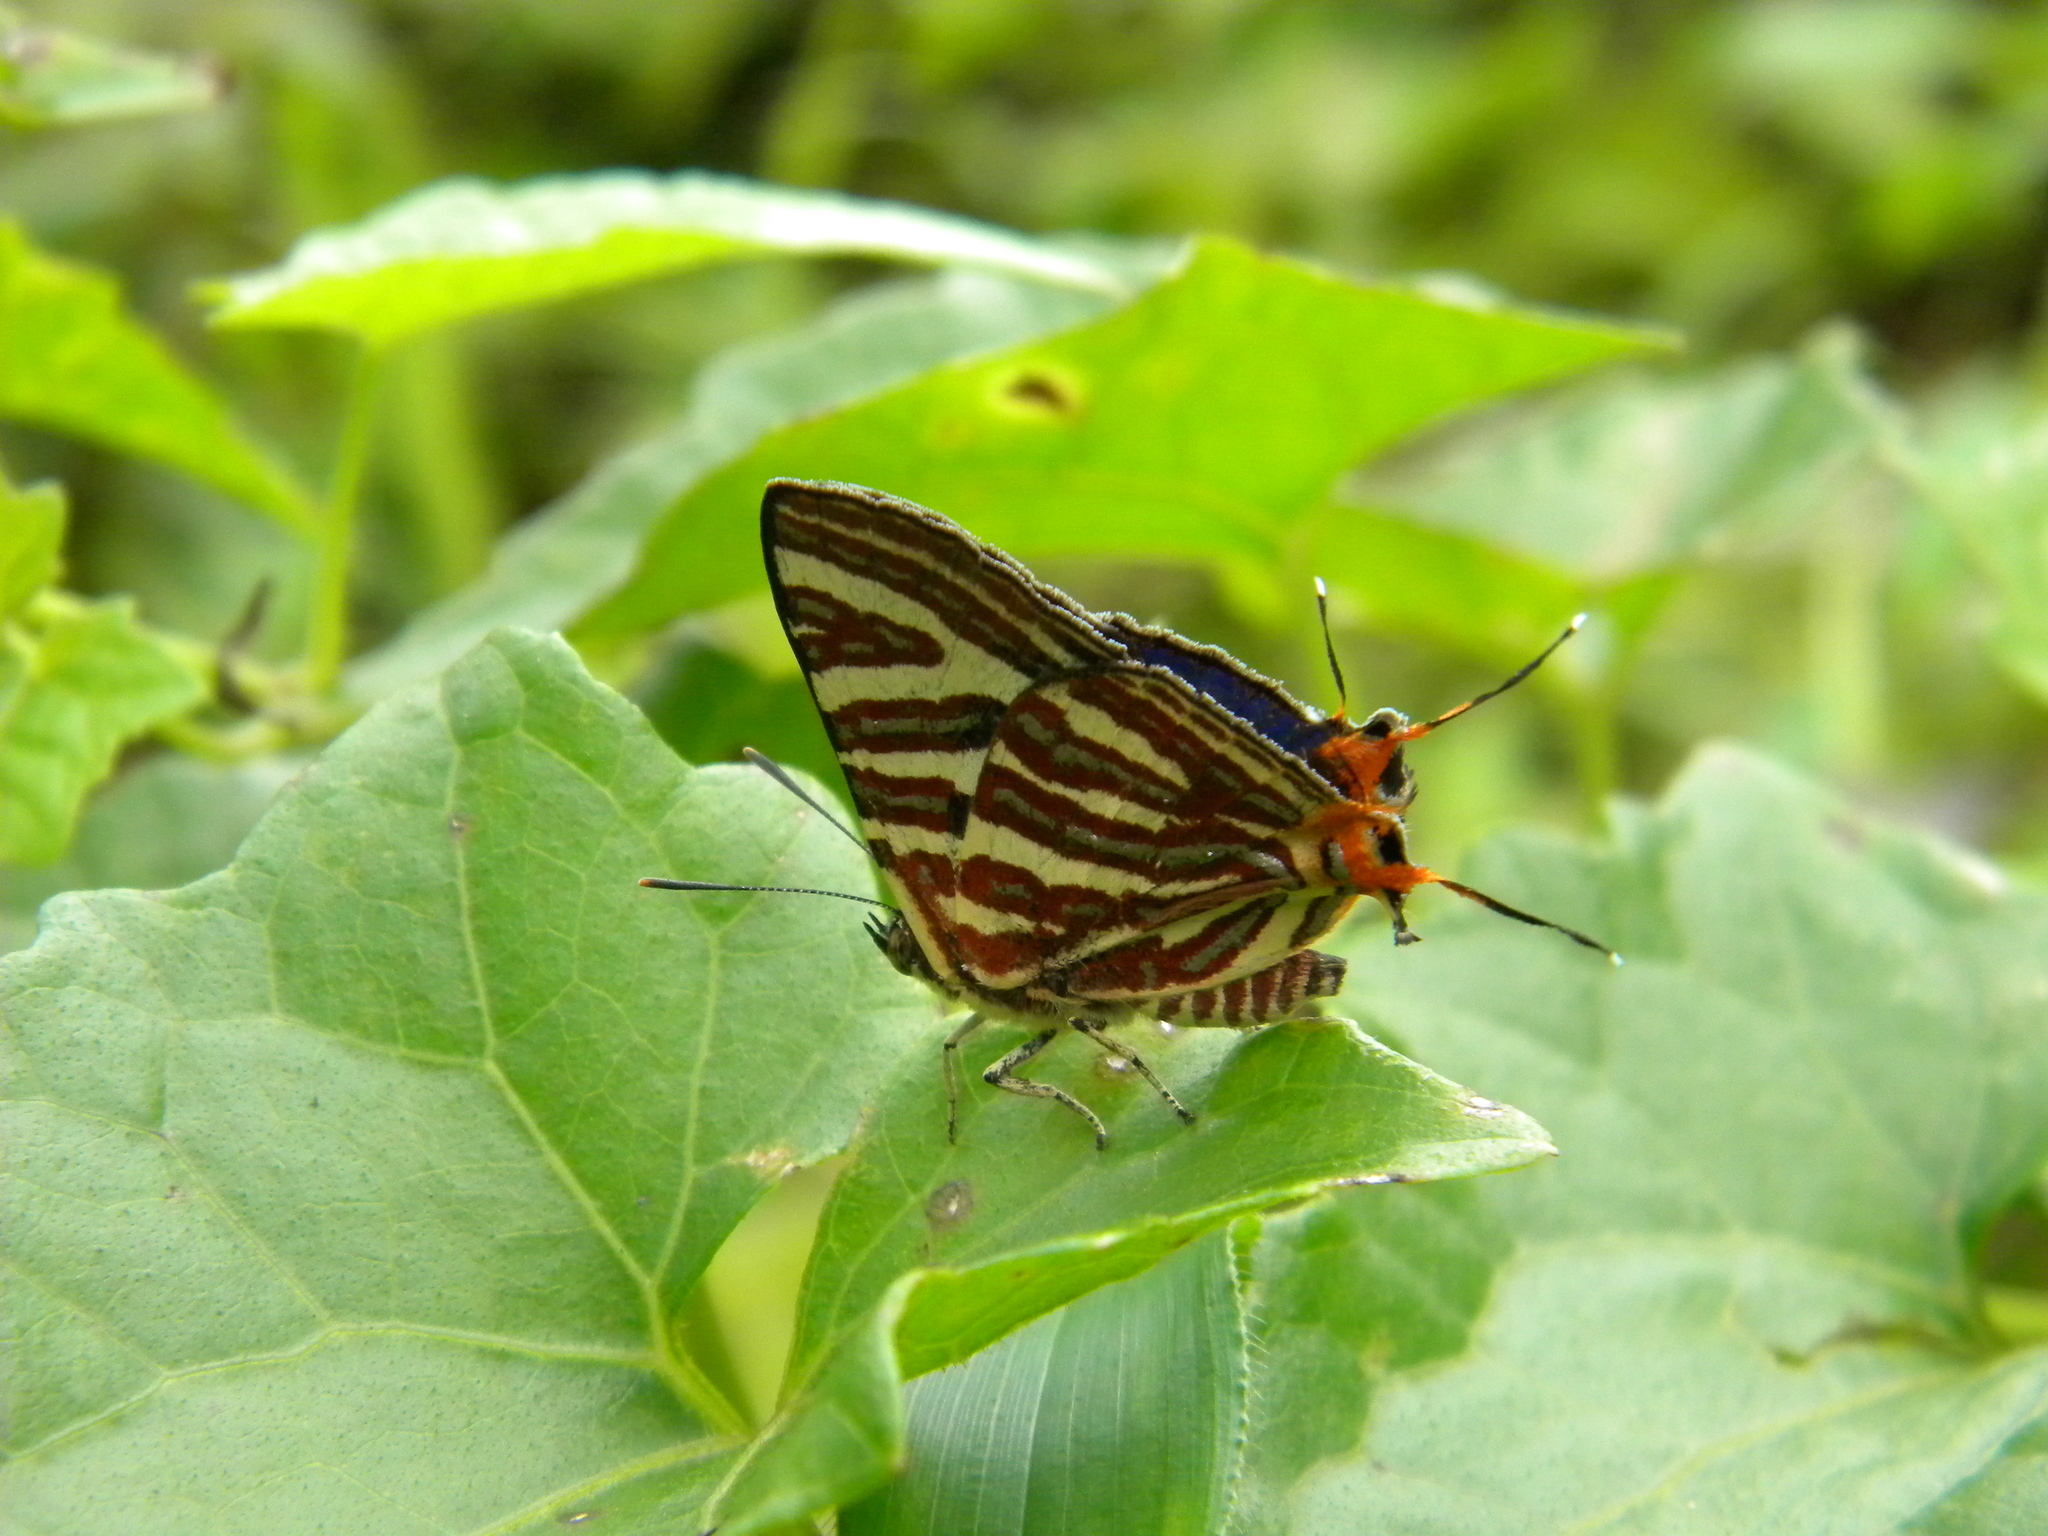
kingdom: Animalia
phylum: Arthropoda
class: Insecta
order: Lepidoptera
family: Lycaenidae
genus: Cigaritis
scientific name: Cigaritis lohita
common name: Long-banded silverline
